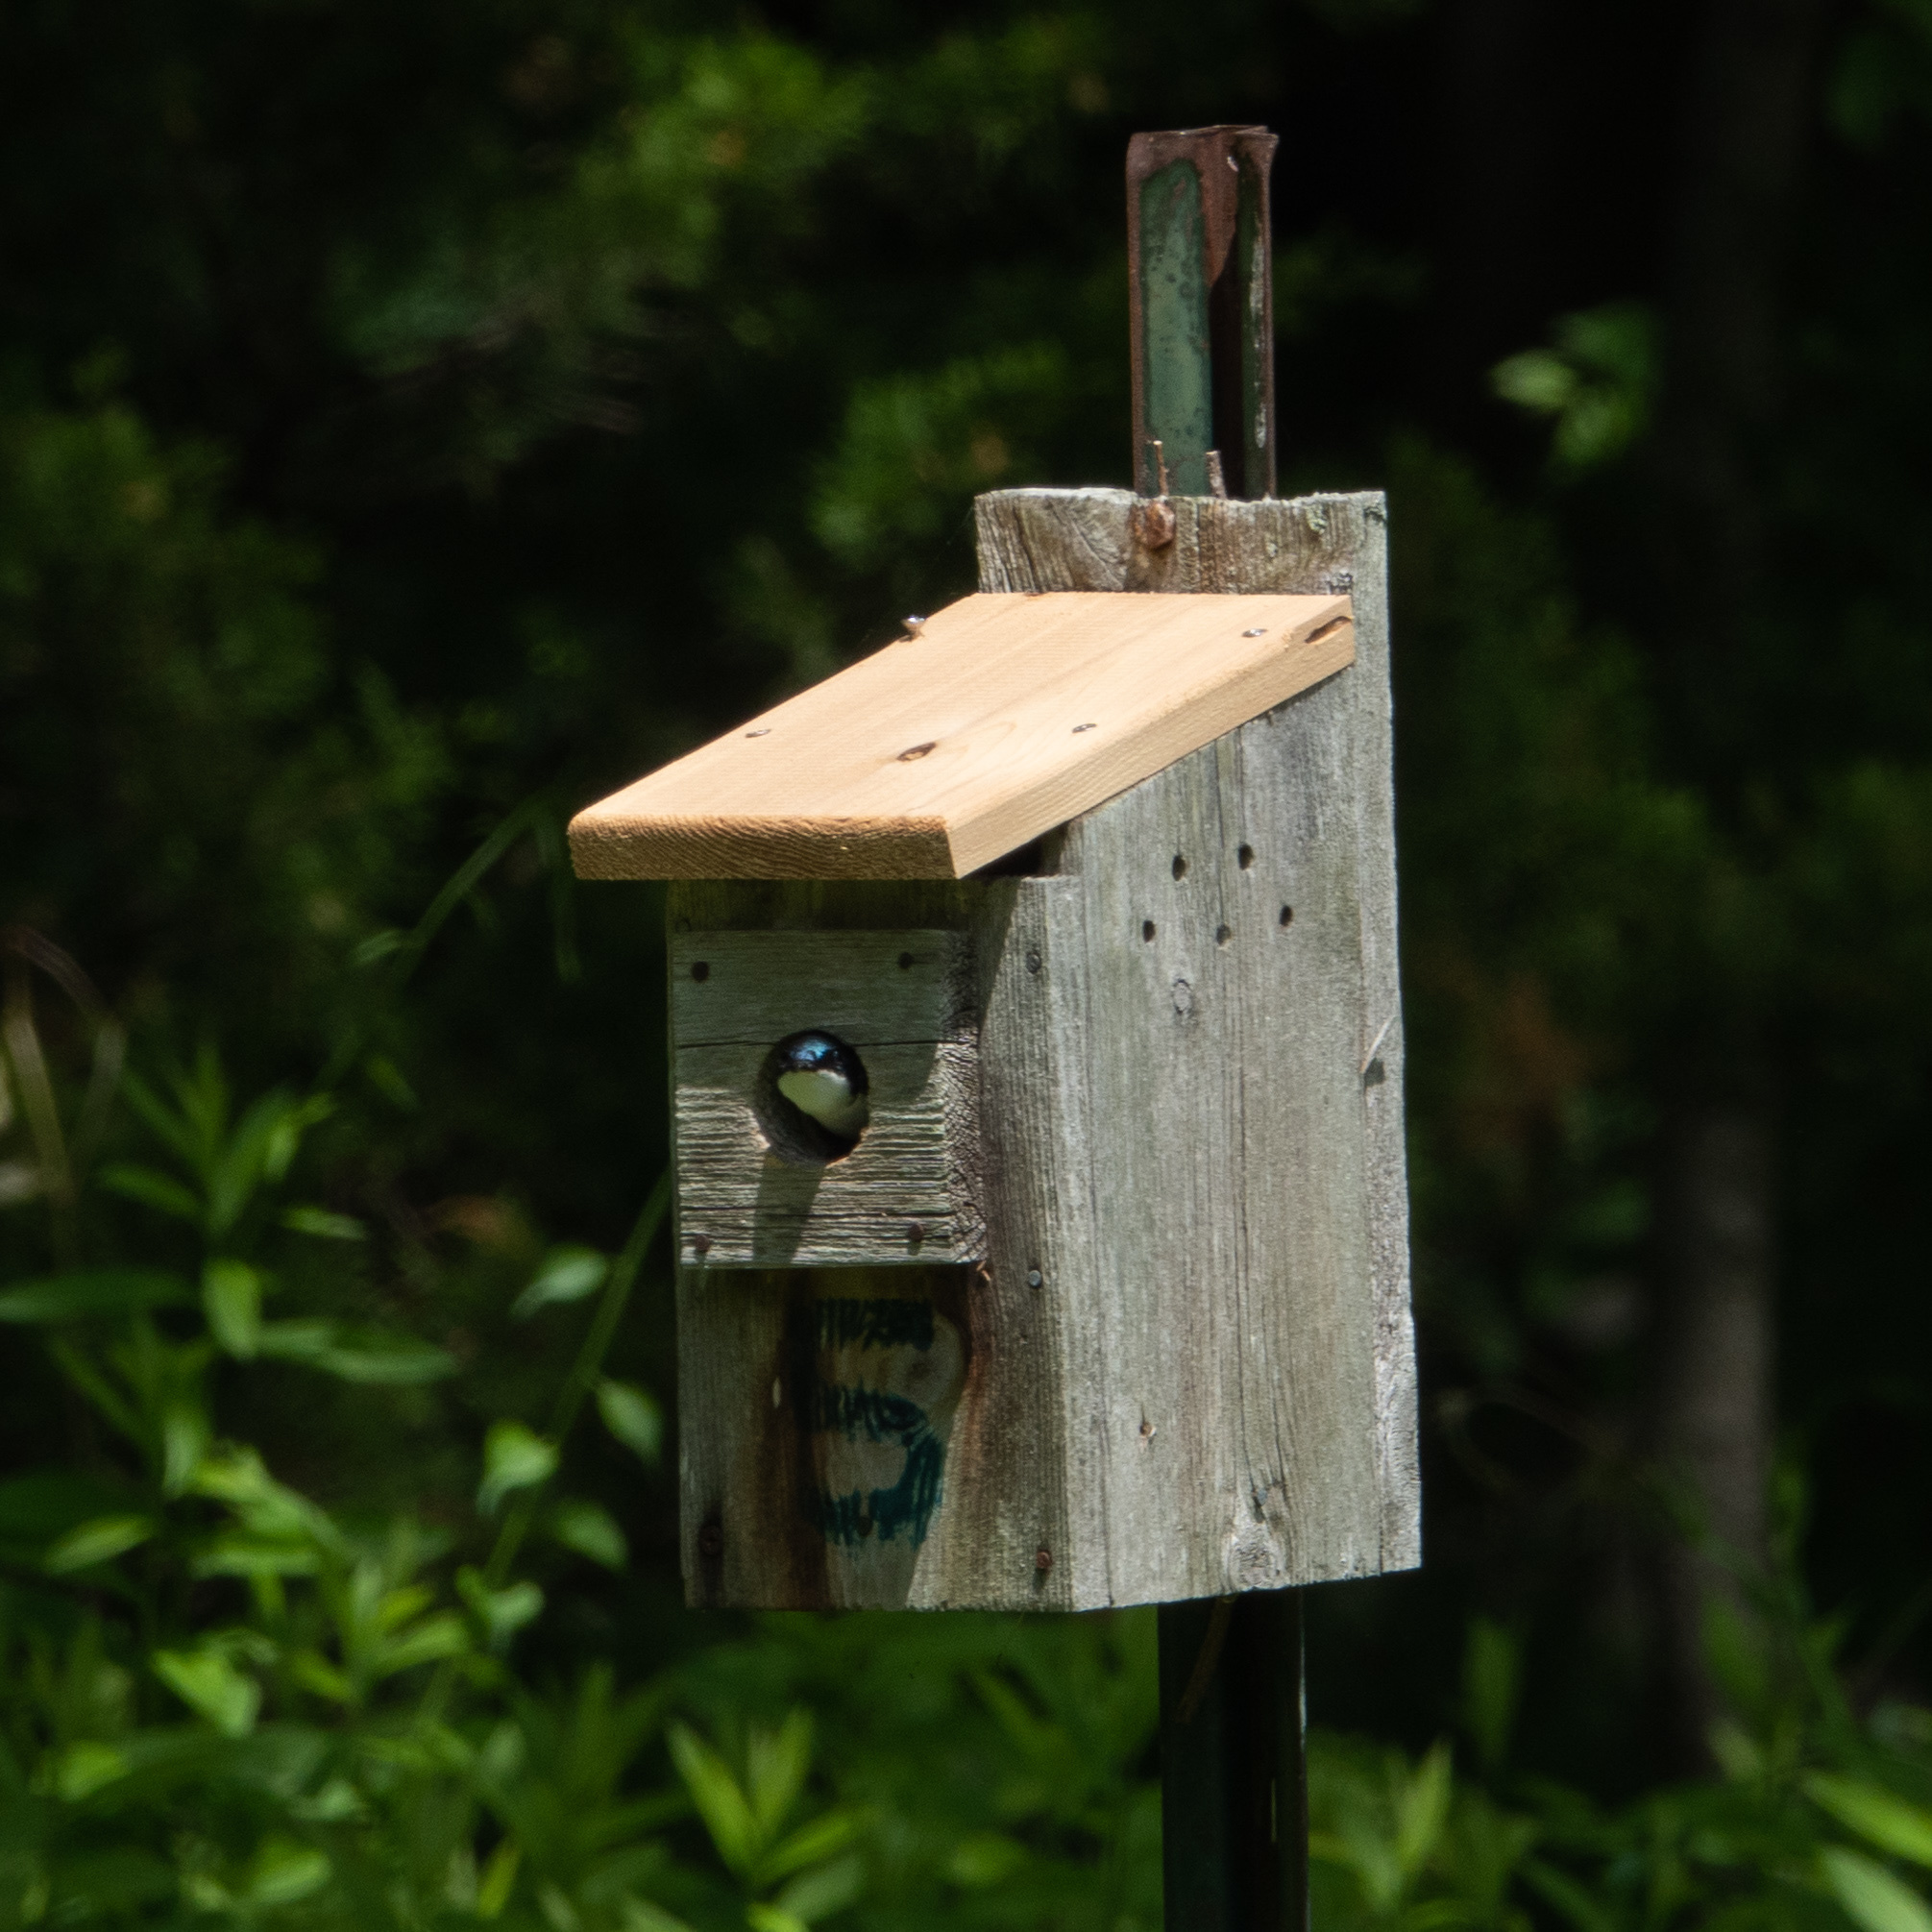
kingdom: Animalia
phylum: Chordata
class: Aves
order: Passeriformes
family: Hirundinidae
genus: Tachycineta
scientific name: Tachycineta bicolor
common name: Tree swallow
